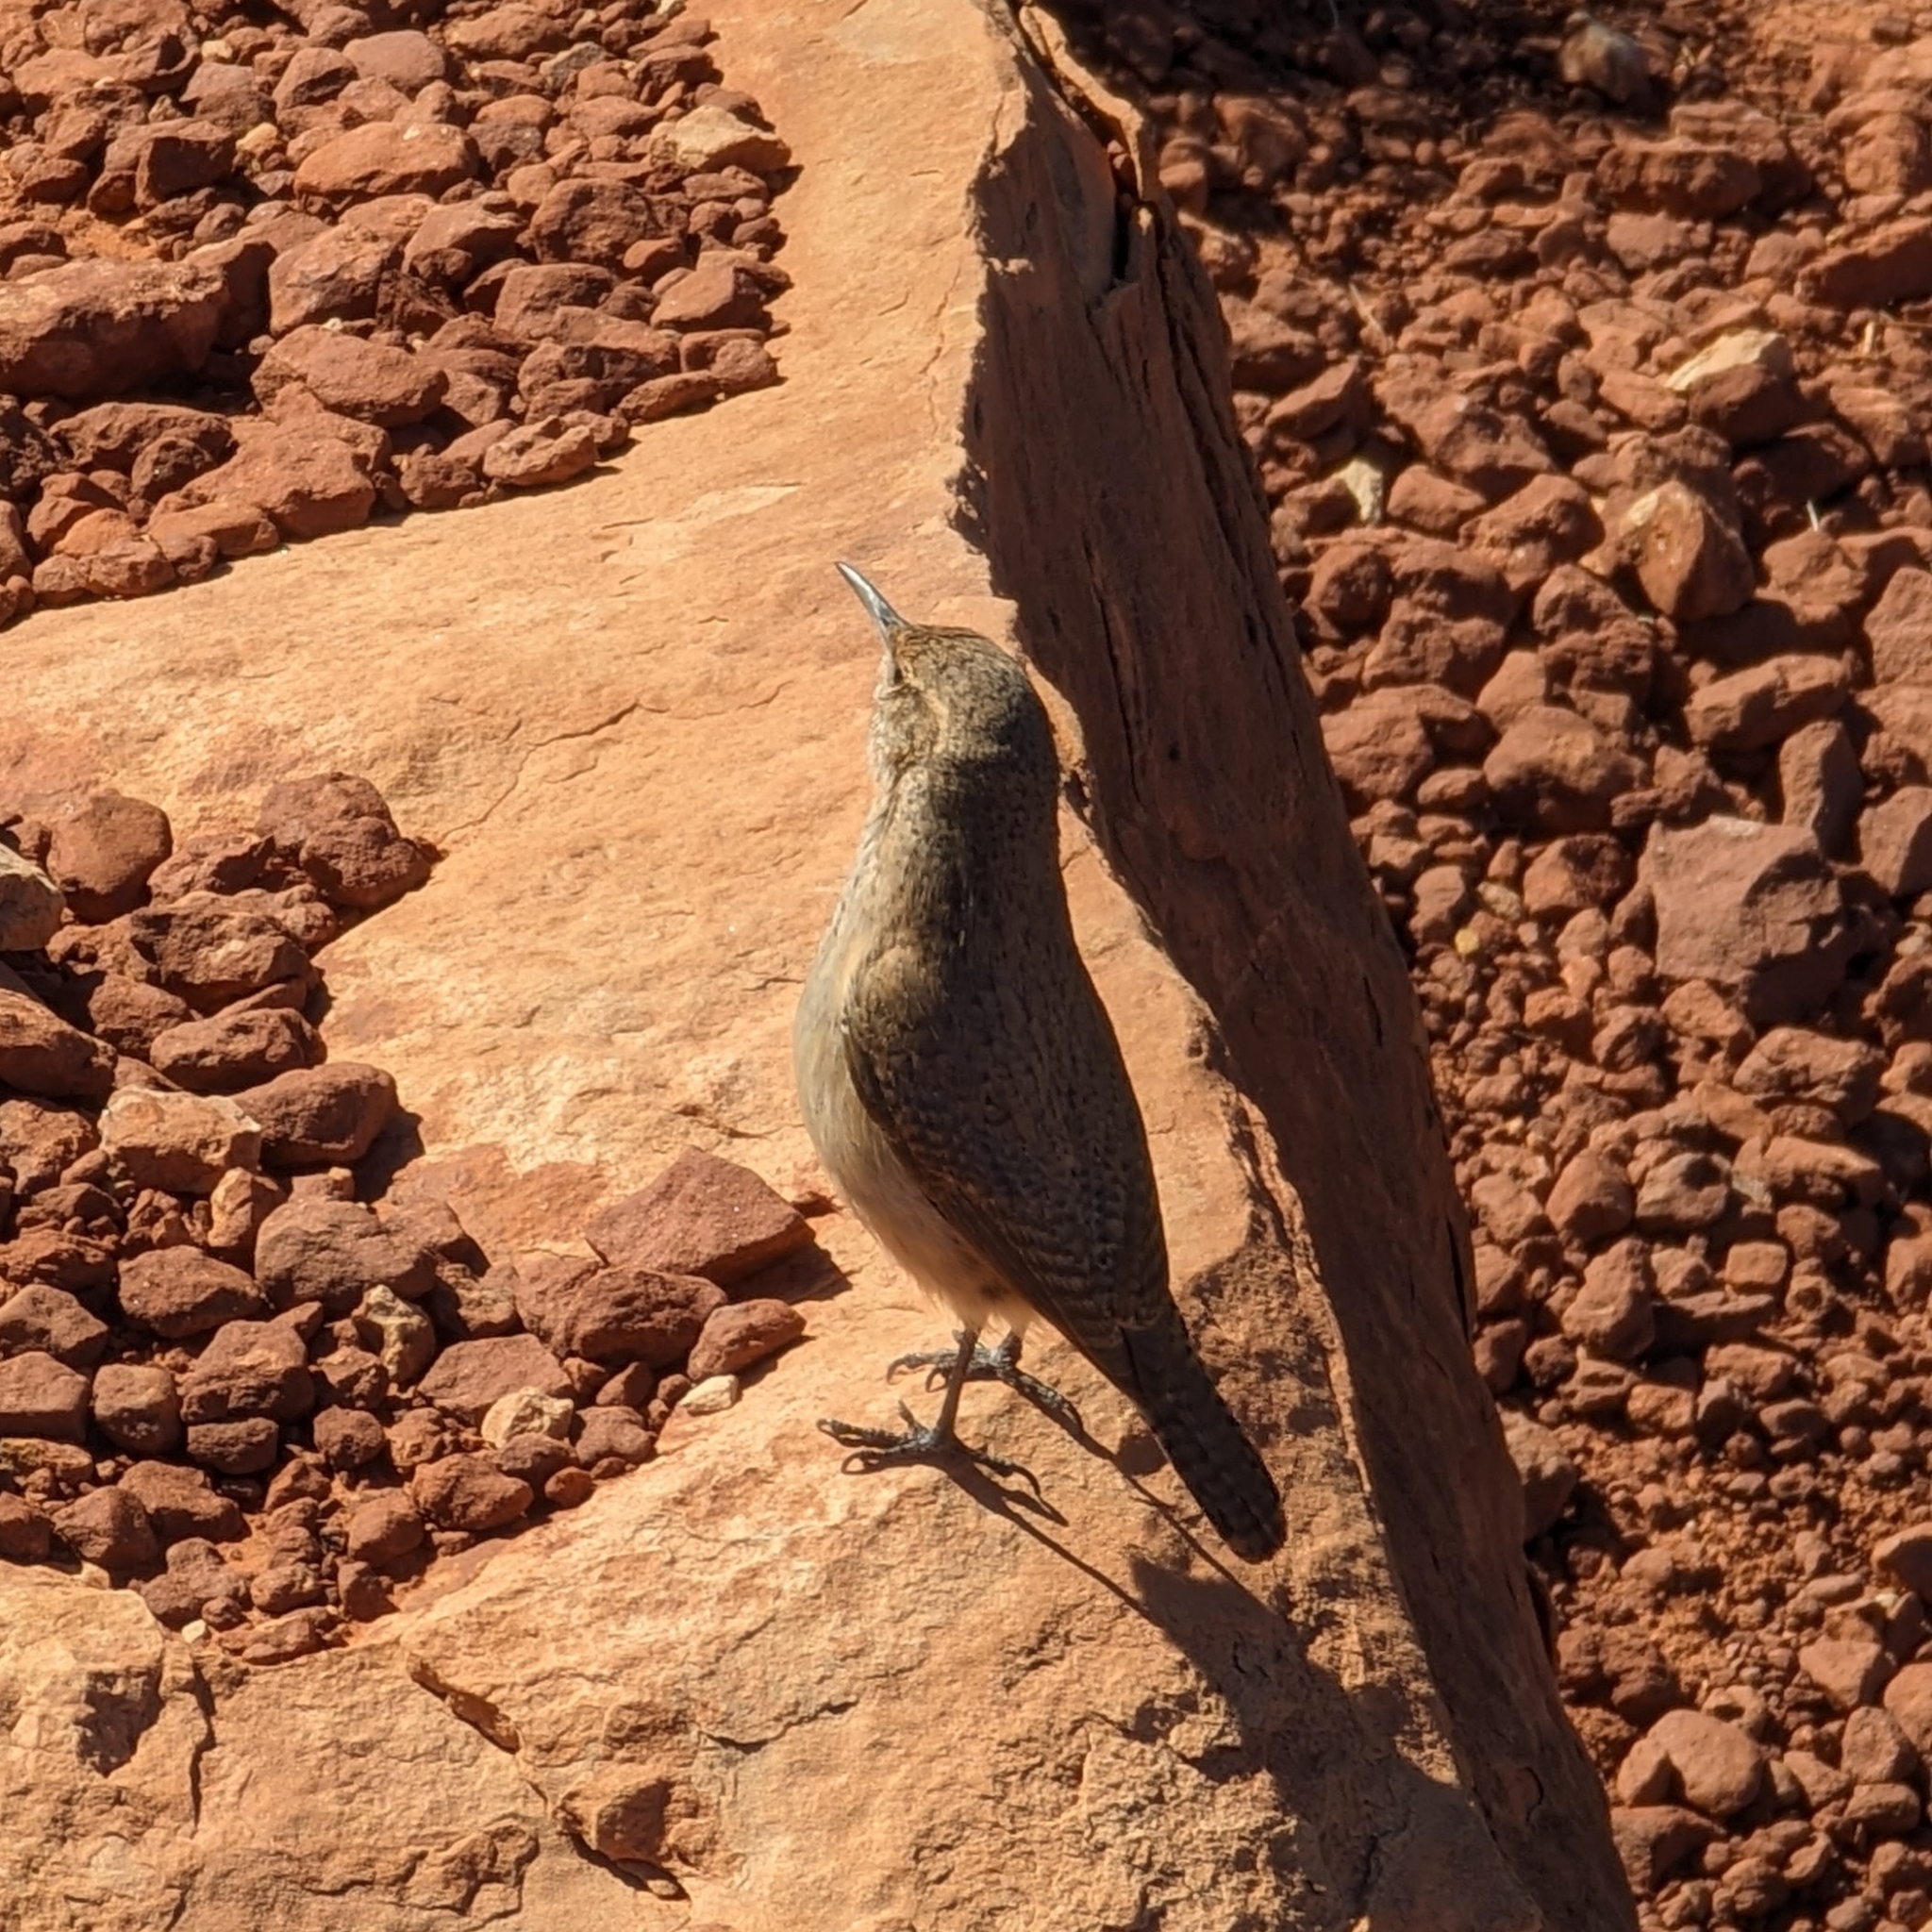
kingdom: Animalia
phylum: Chordata
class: Aves
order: Passeriformes
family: Troglodytidae
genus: Salpinctes
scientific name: Salpinctes obsoletus
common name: Rock wren
